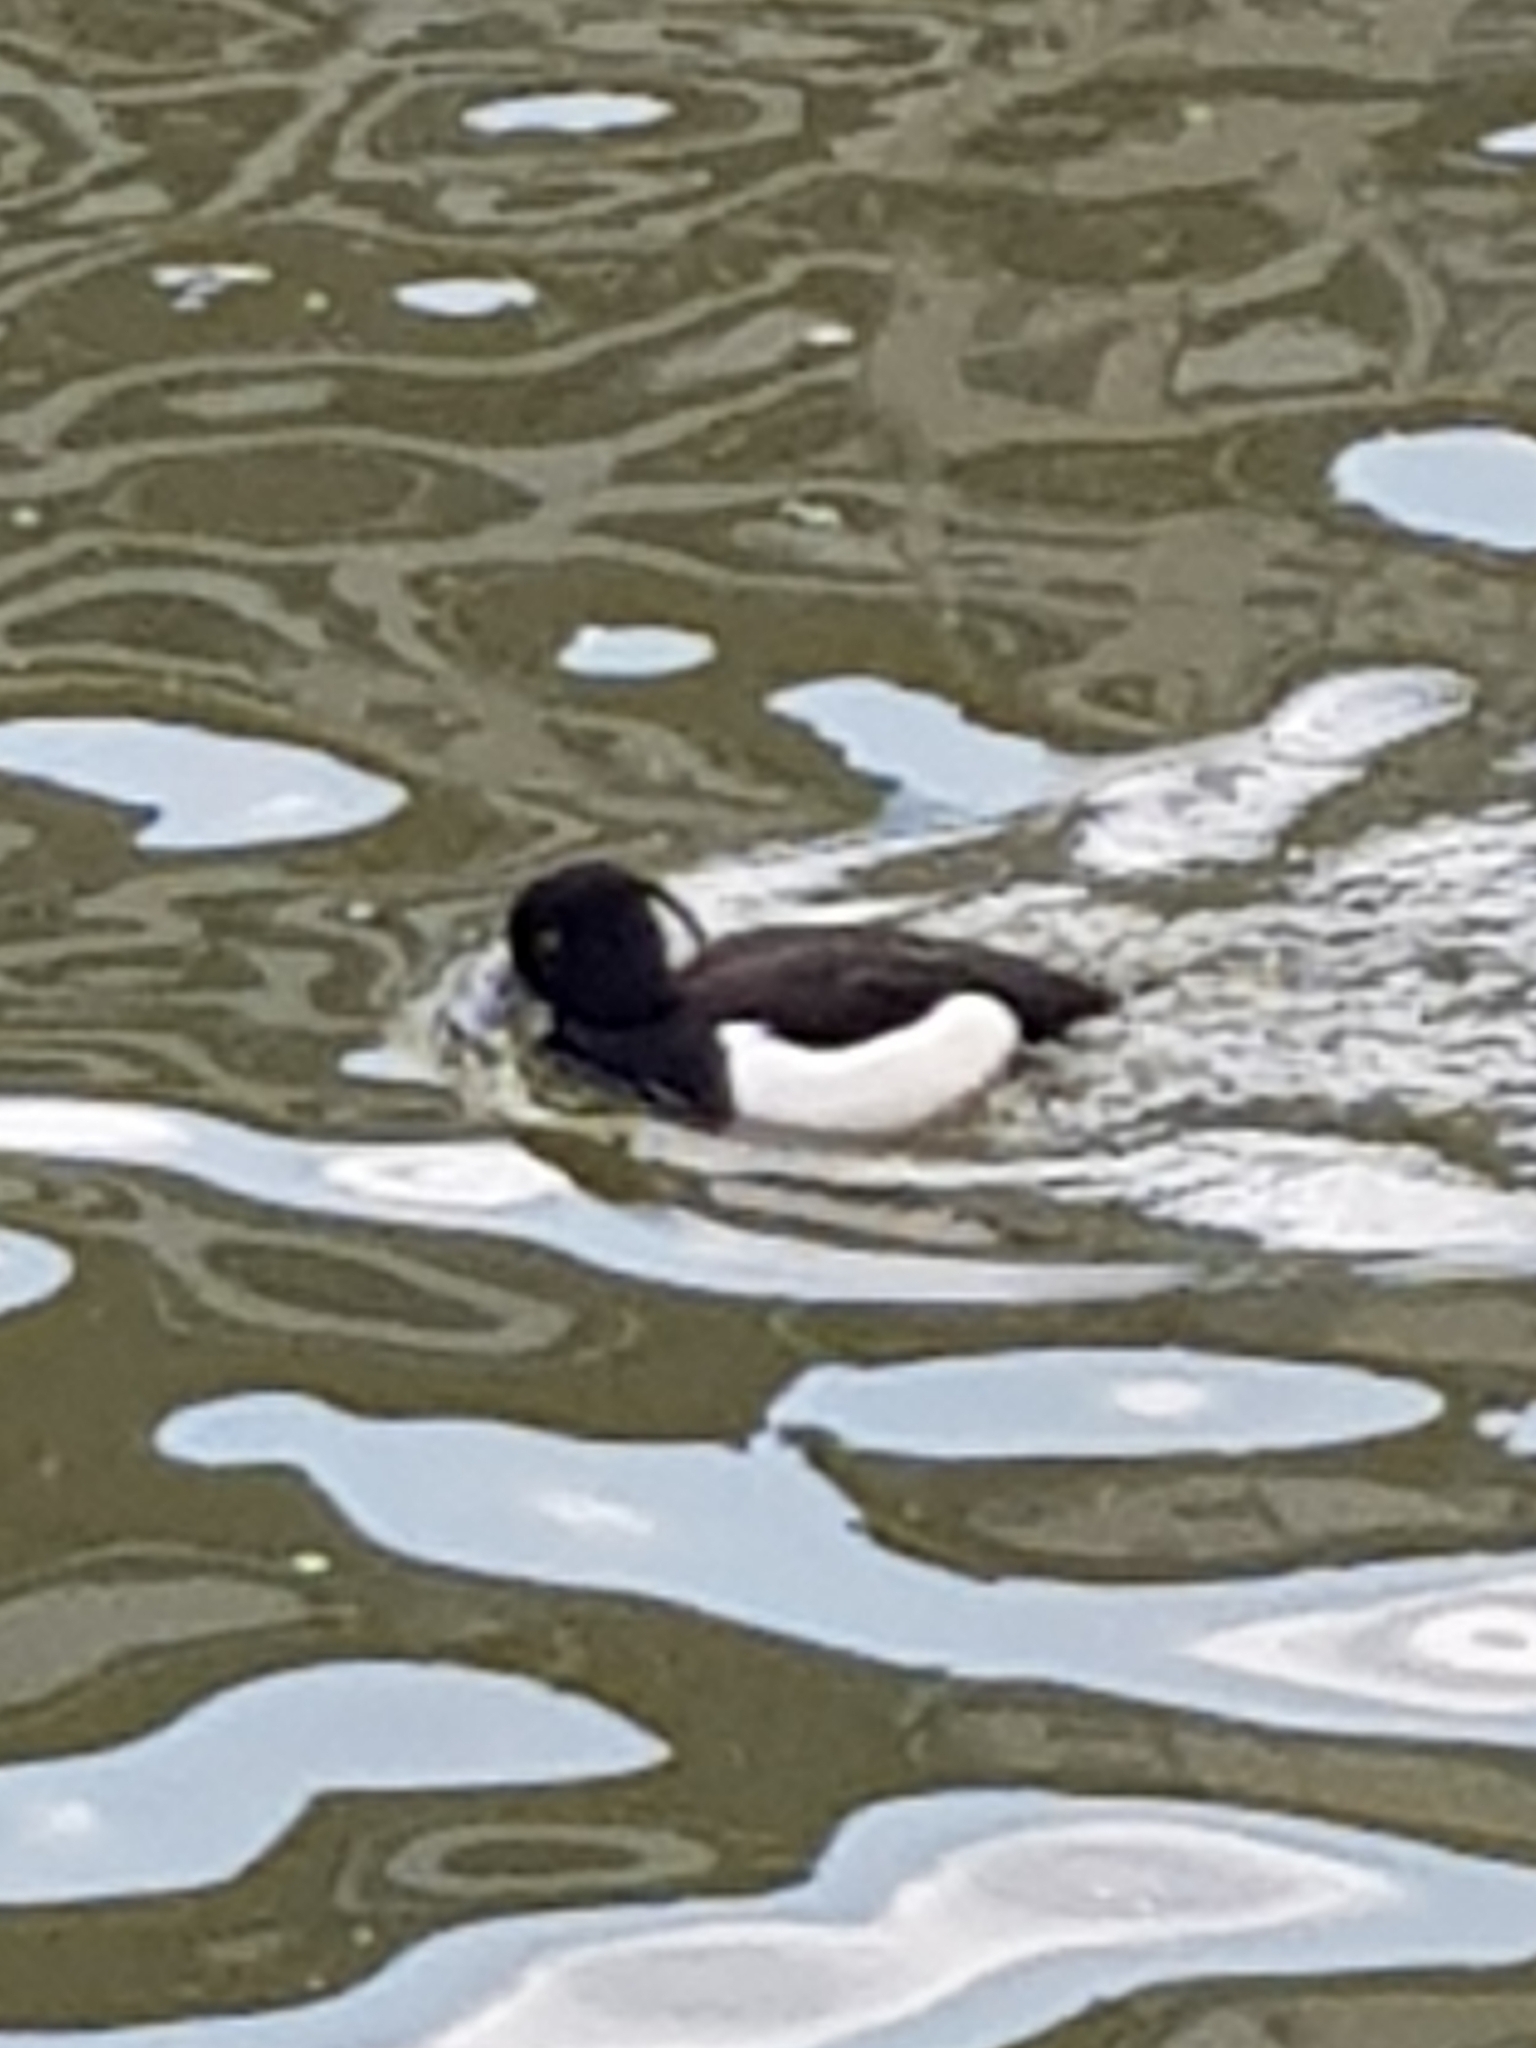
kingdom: Animalia
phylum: Chordata
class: Aves
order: Anseriformes
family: Anatidae
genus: Aythya
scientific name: Aythya fuligula
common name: Tufted duck
